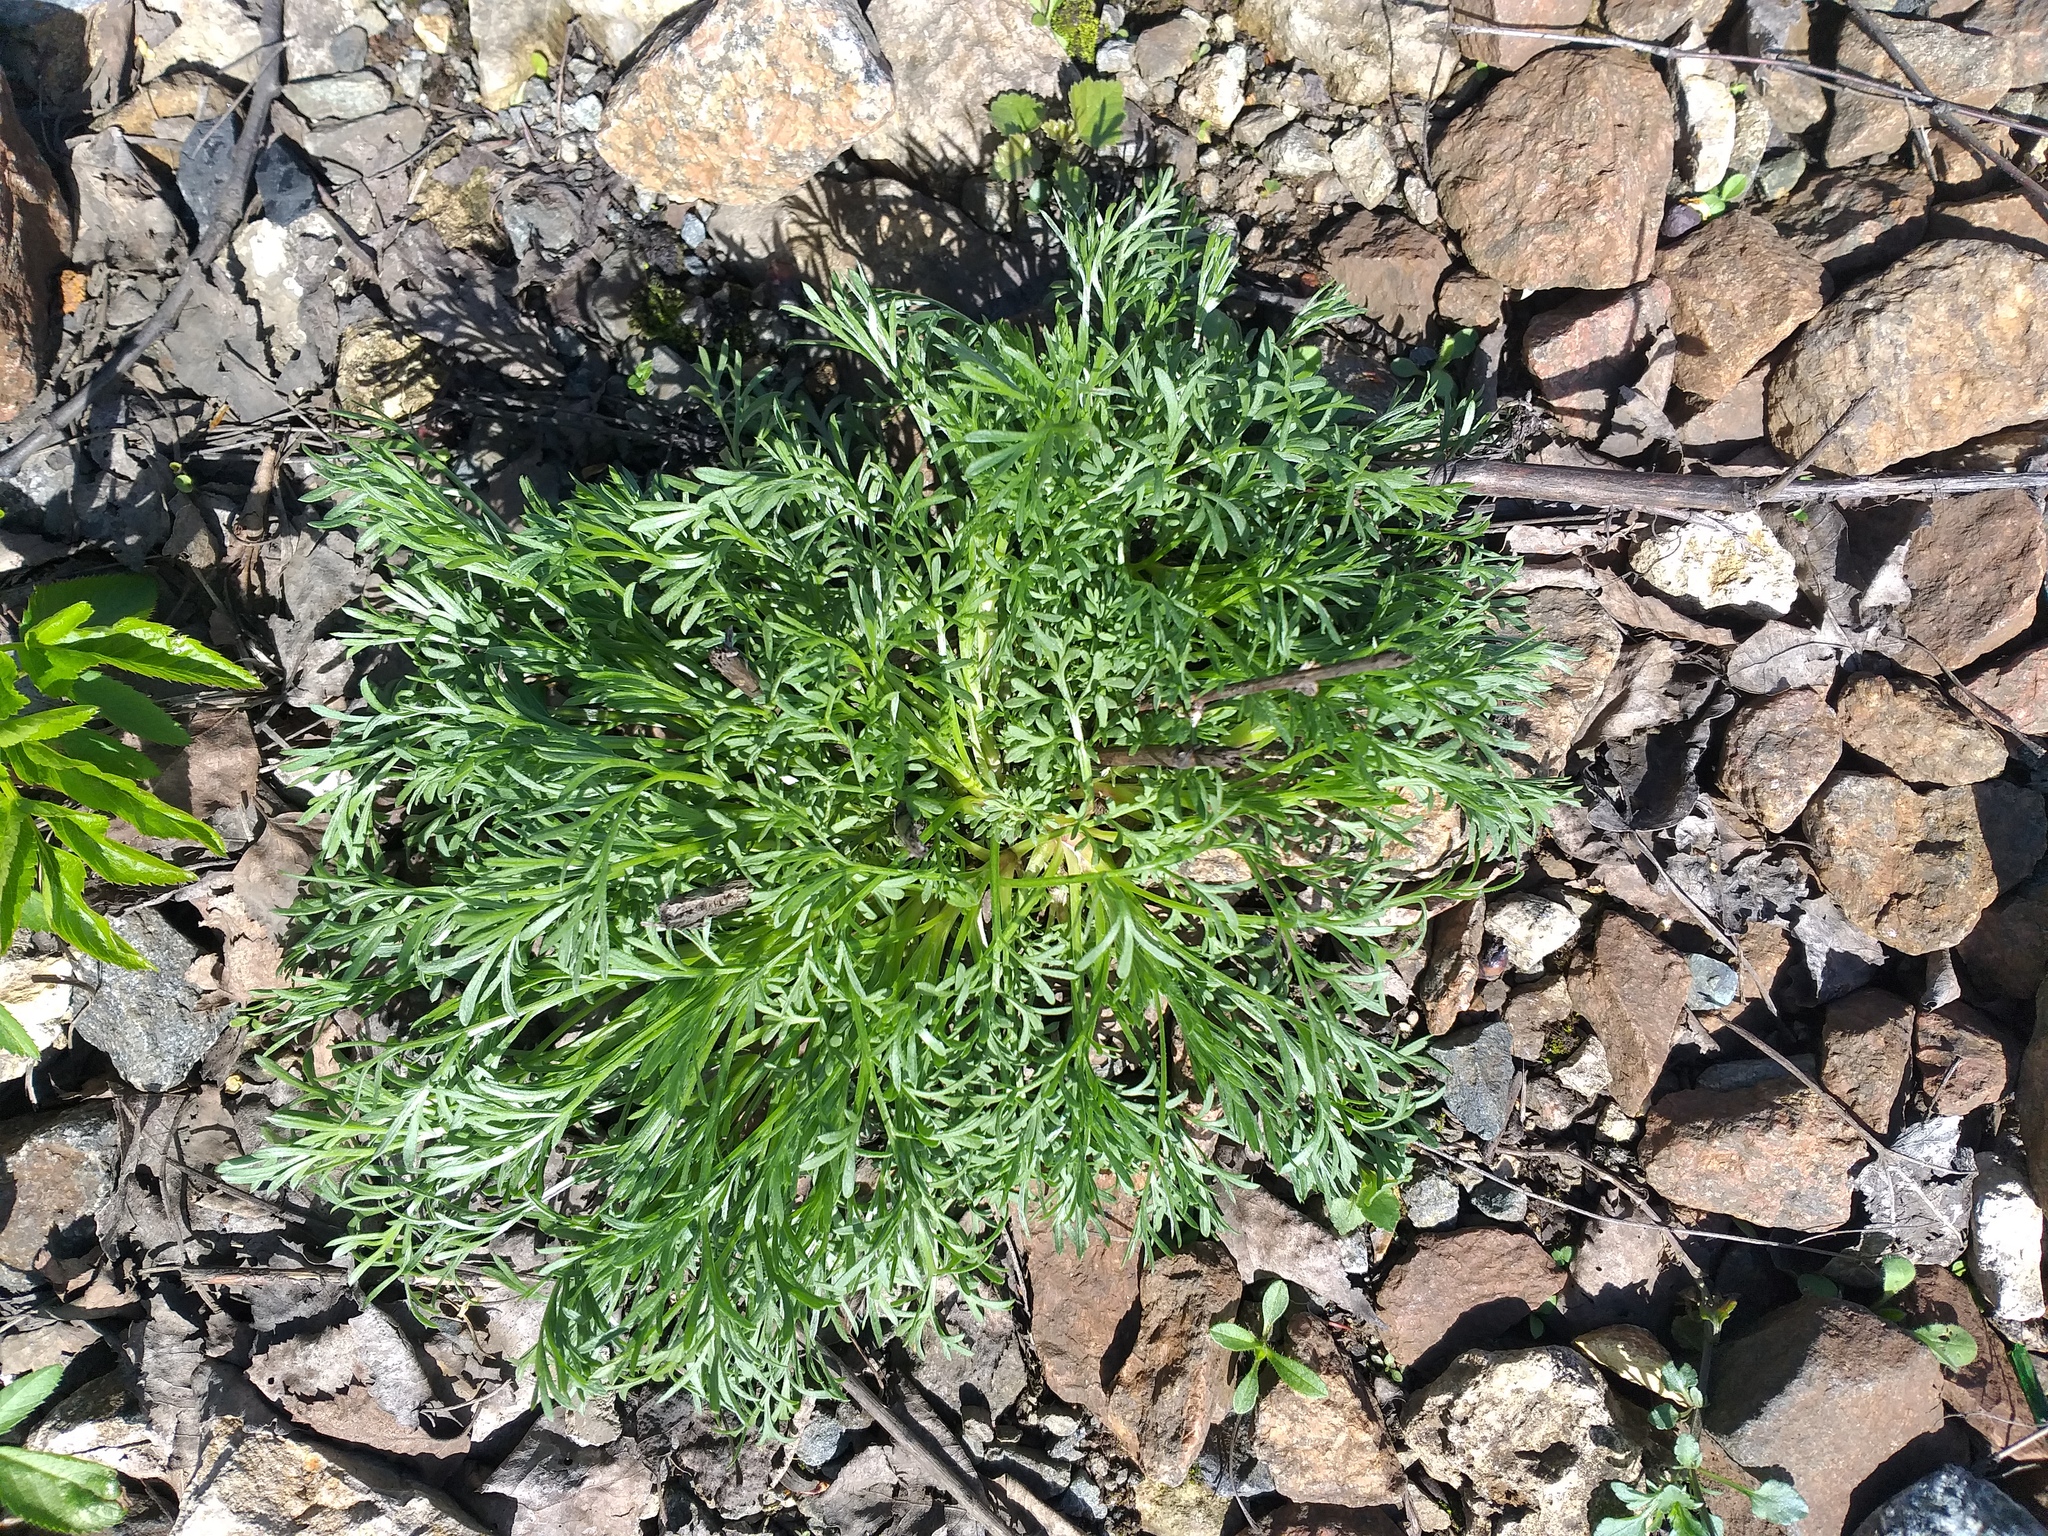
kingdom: Plantae
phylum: Tracheophyta
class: Magnoliopsida
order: Asterales
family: Asteraceae
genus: Artemisia
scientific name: Artemisia campestris
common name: Field wormwood
